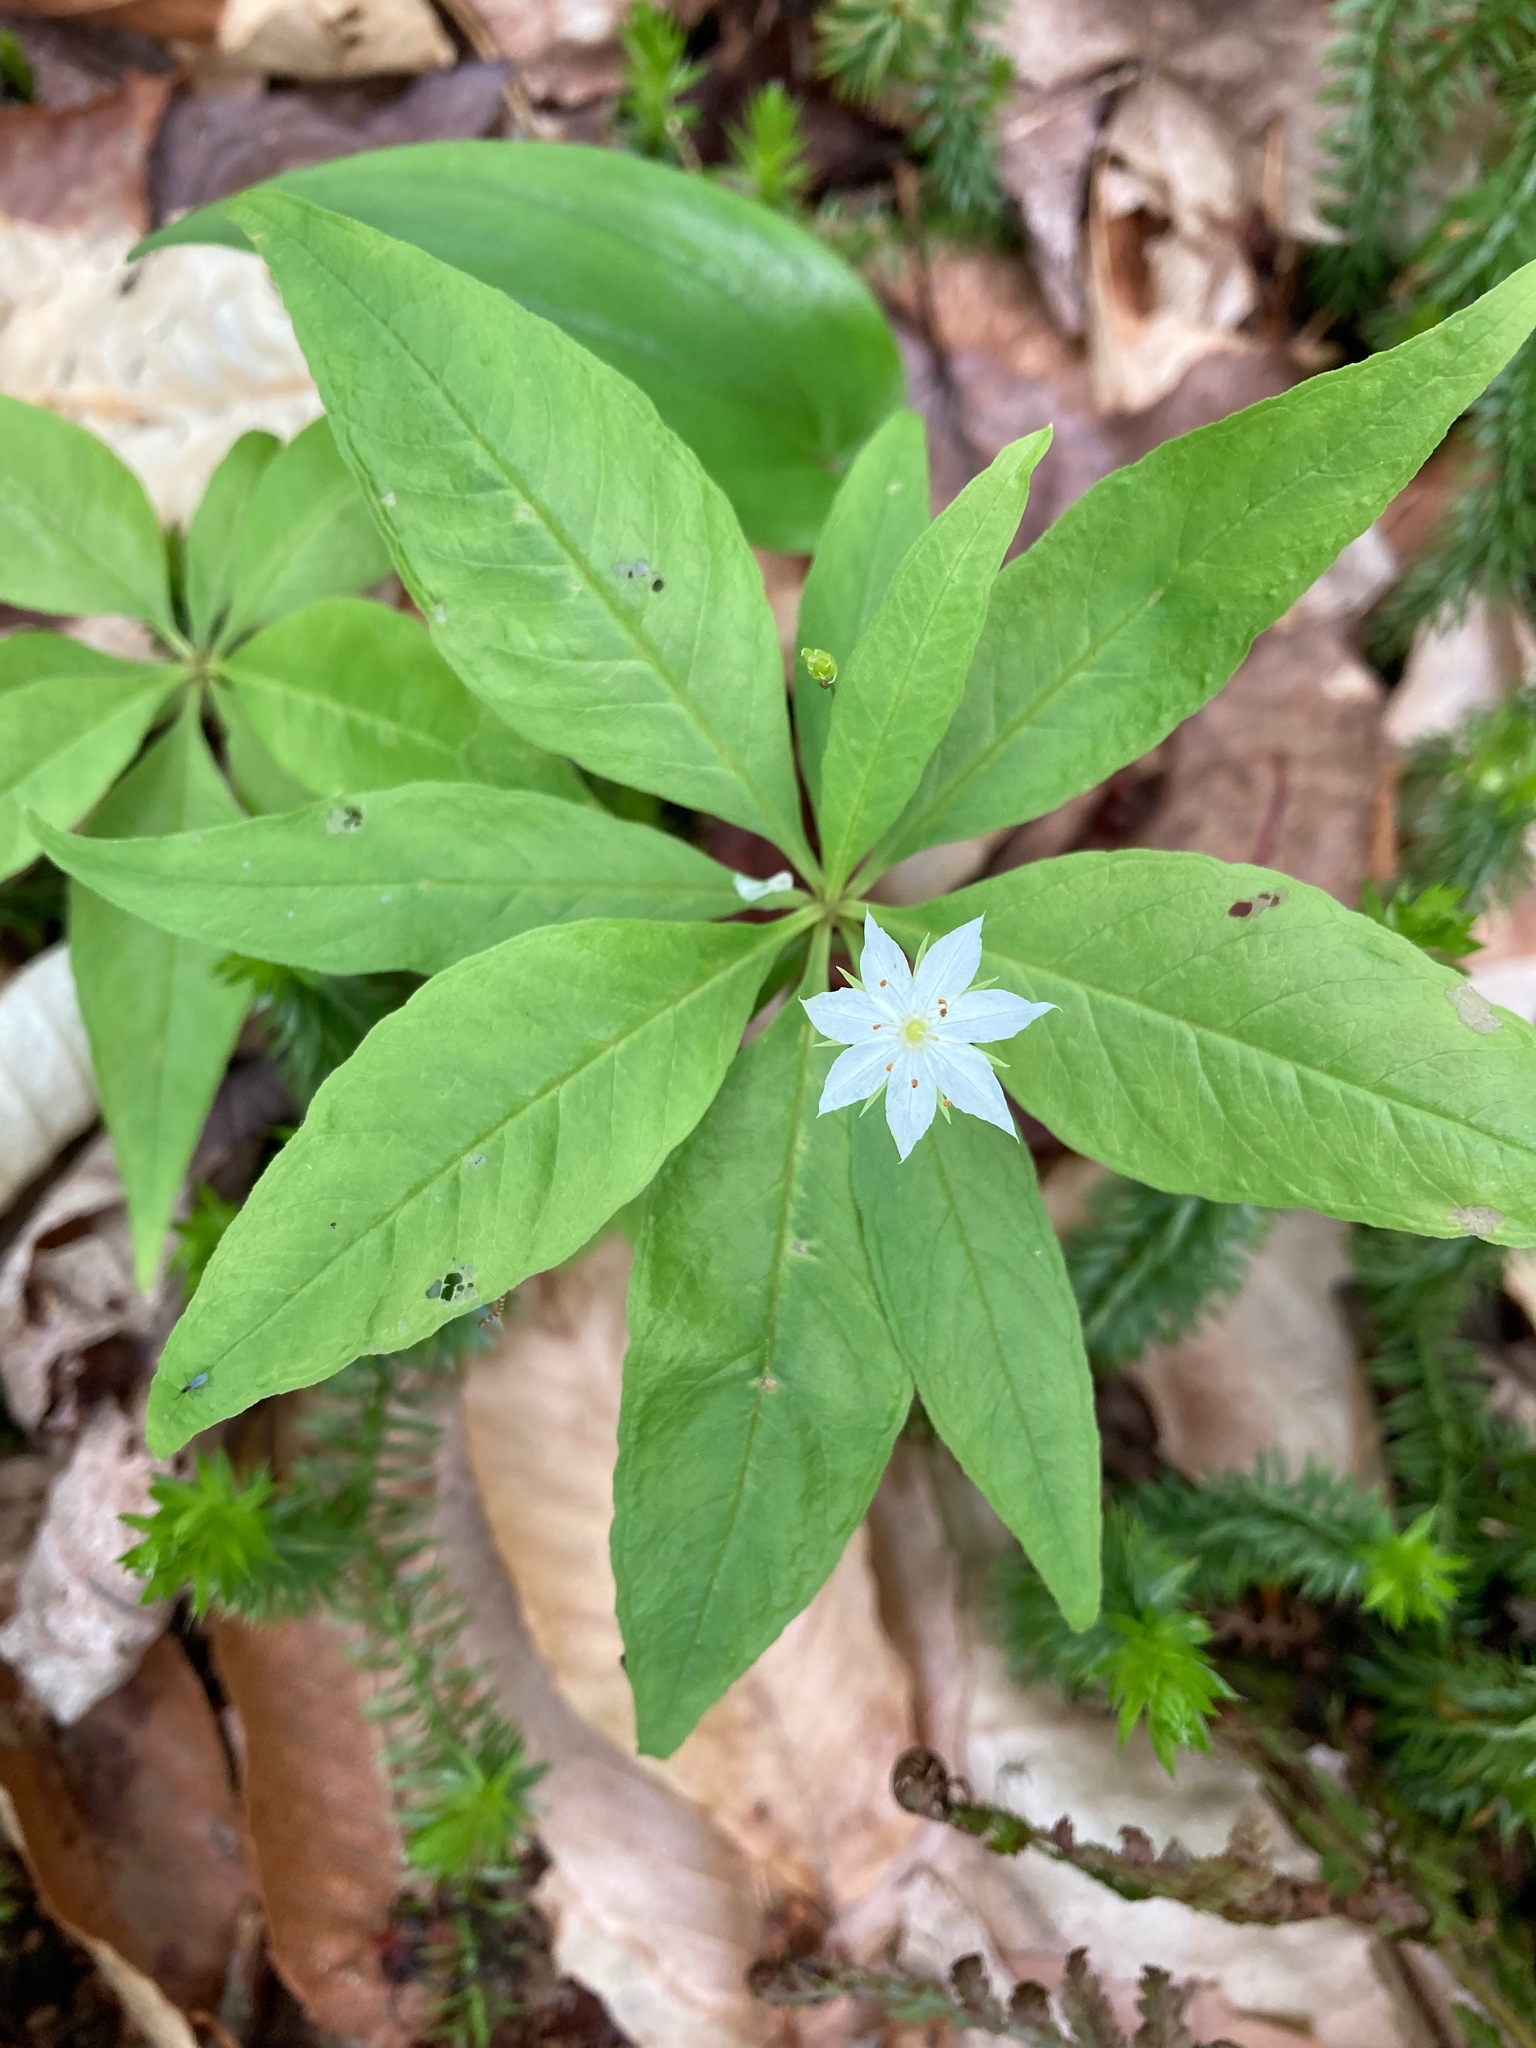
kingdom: Plantae
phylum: Tracheophyta
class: Magnoliopsida
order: Ericales
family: Primulaceae
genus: Lysimachia
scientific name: Lysimachia borealis
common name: American starflower
